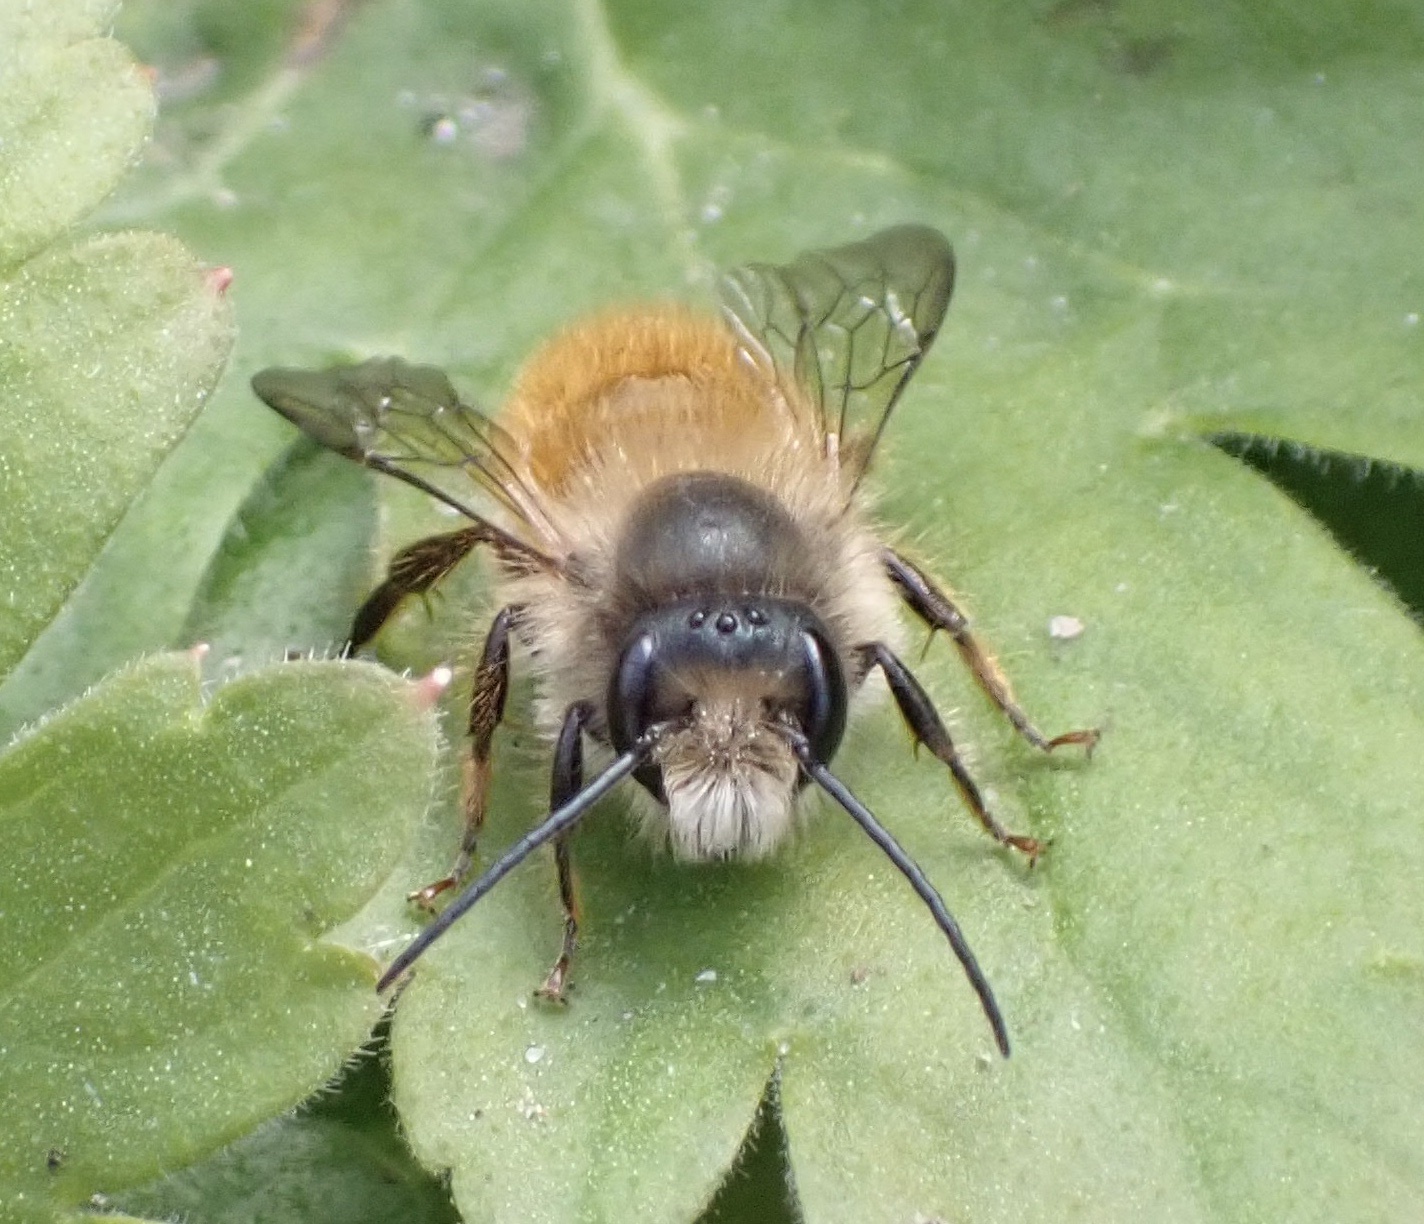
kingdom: Animalia
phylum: Arthropoda
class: Insecta
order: Hymenoptera
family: Megachilidae
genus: Osmia
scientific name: Osmia bicornis
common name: Red mason bee
